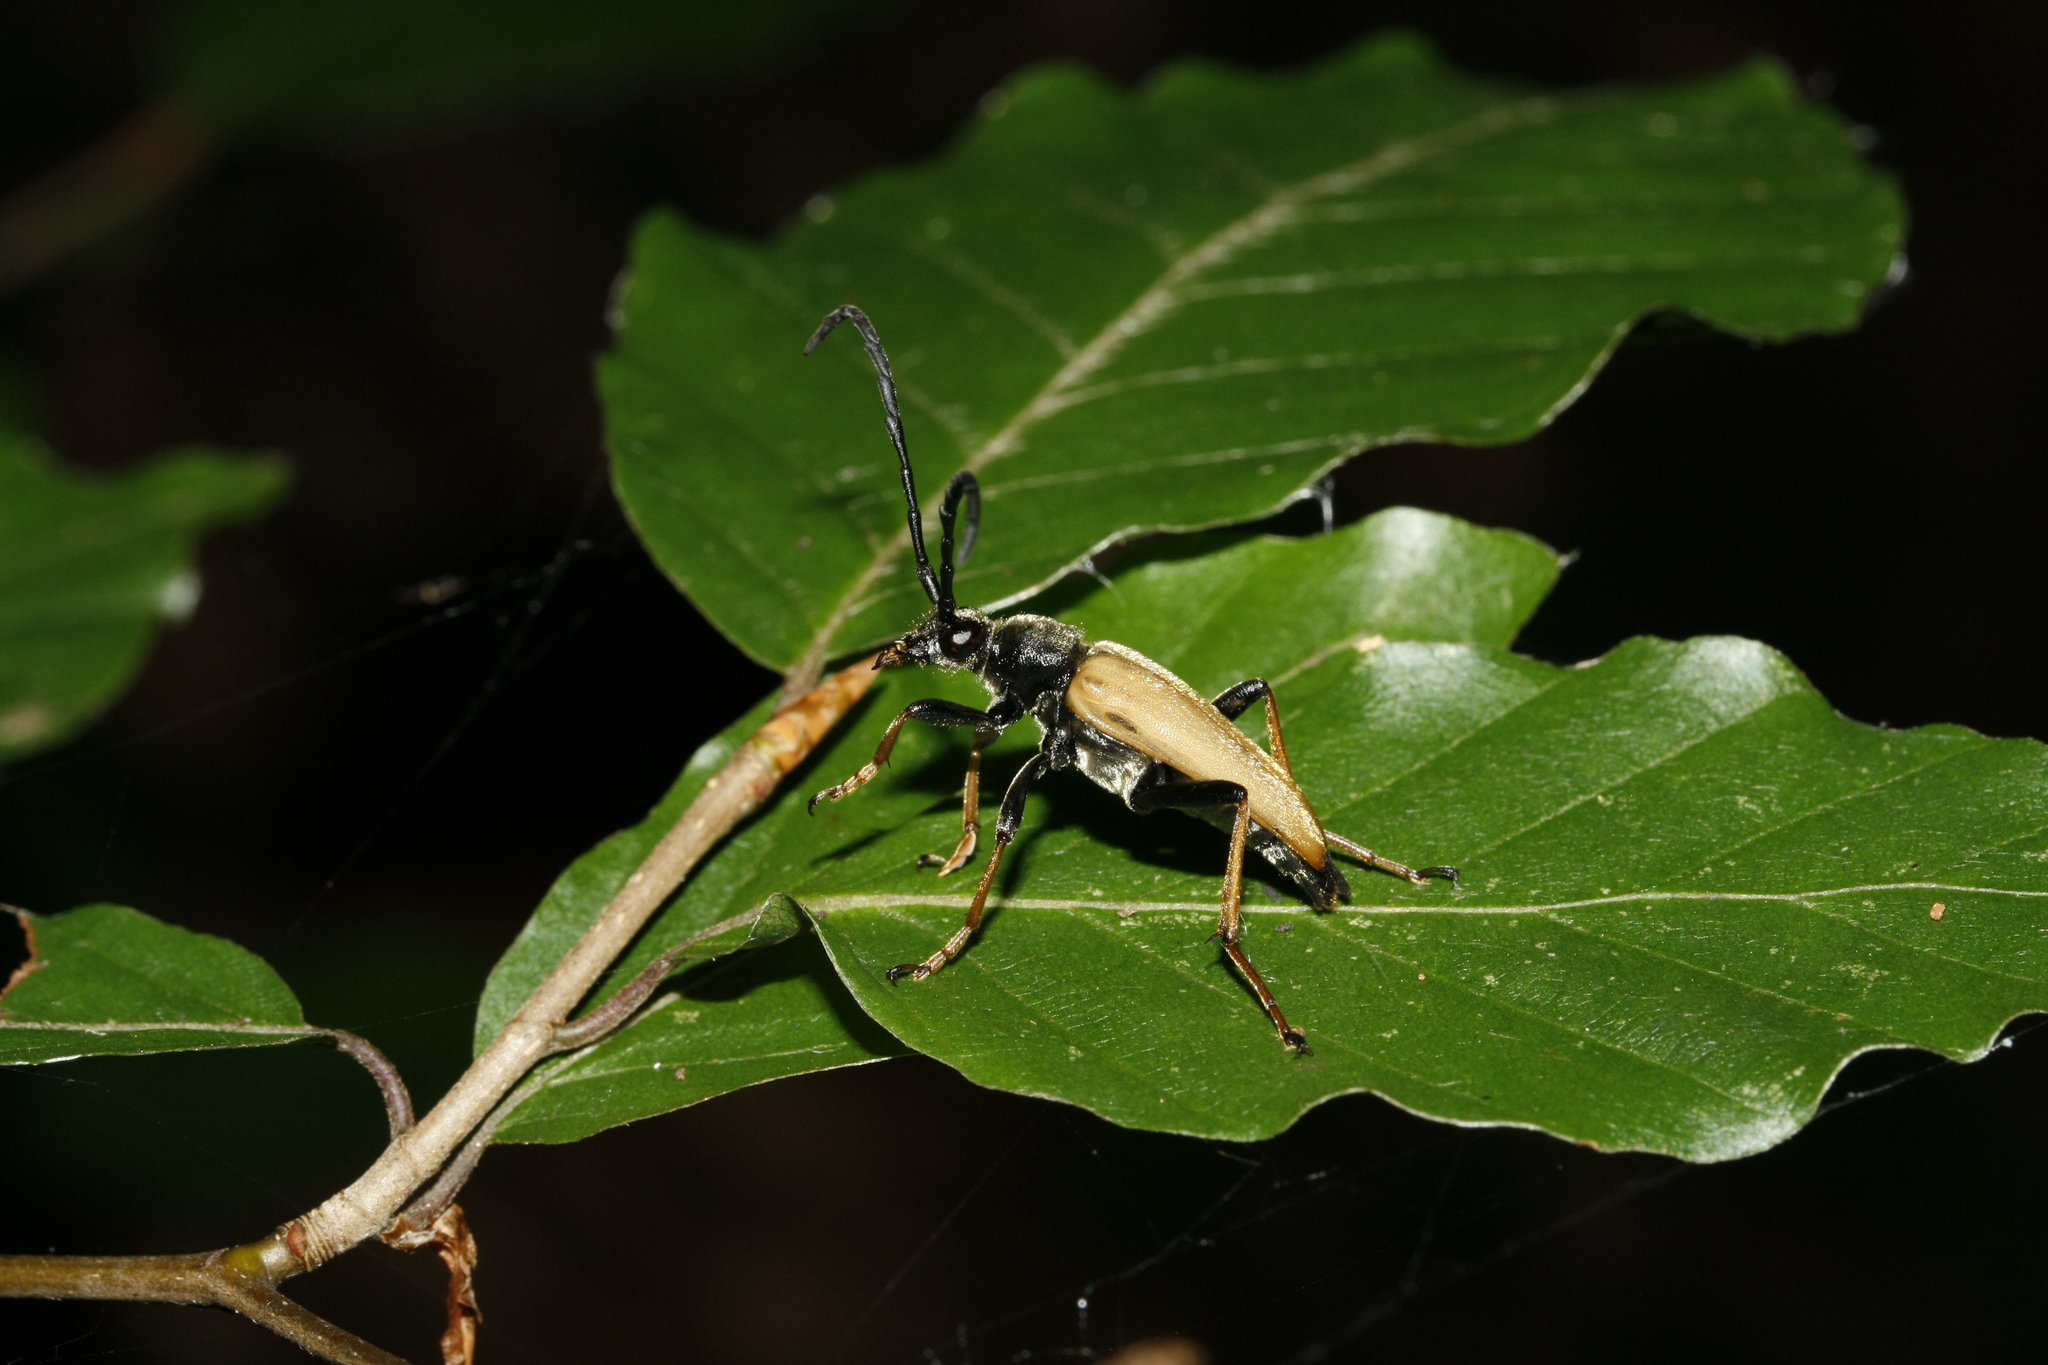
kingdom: Animalia
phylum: Arthropoda
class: Insecta
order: Coleoptera
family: Cerambycidae
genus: Stictoleptura
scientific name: Stictoleptura rubra
